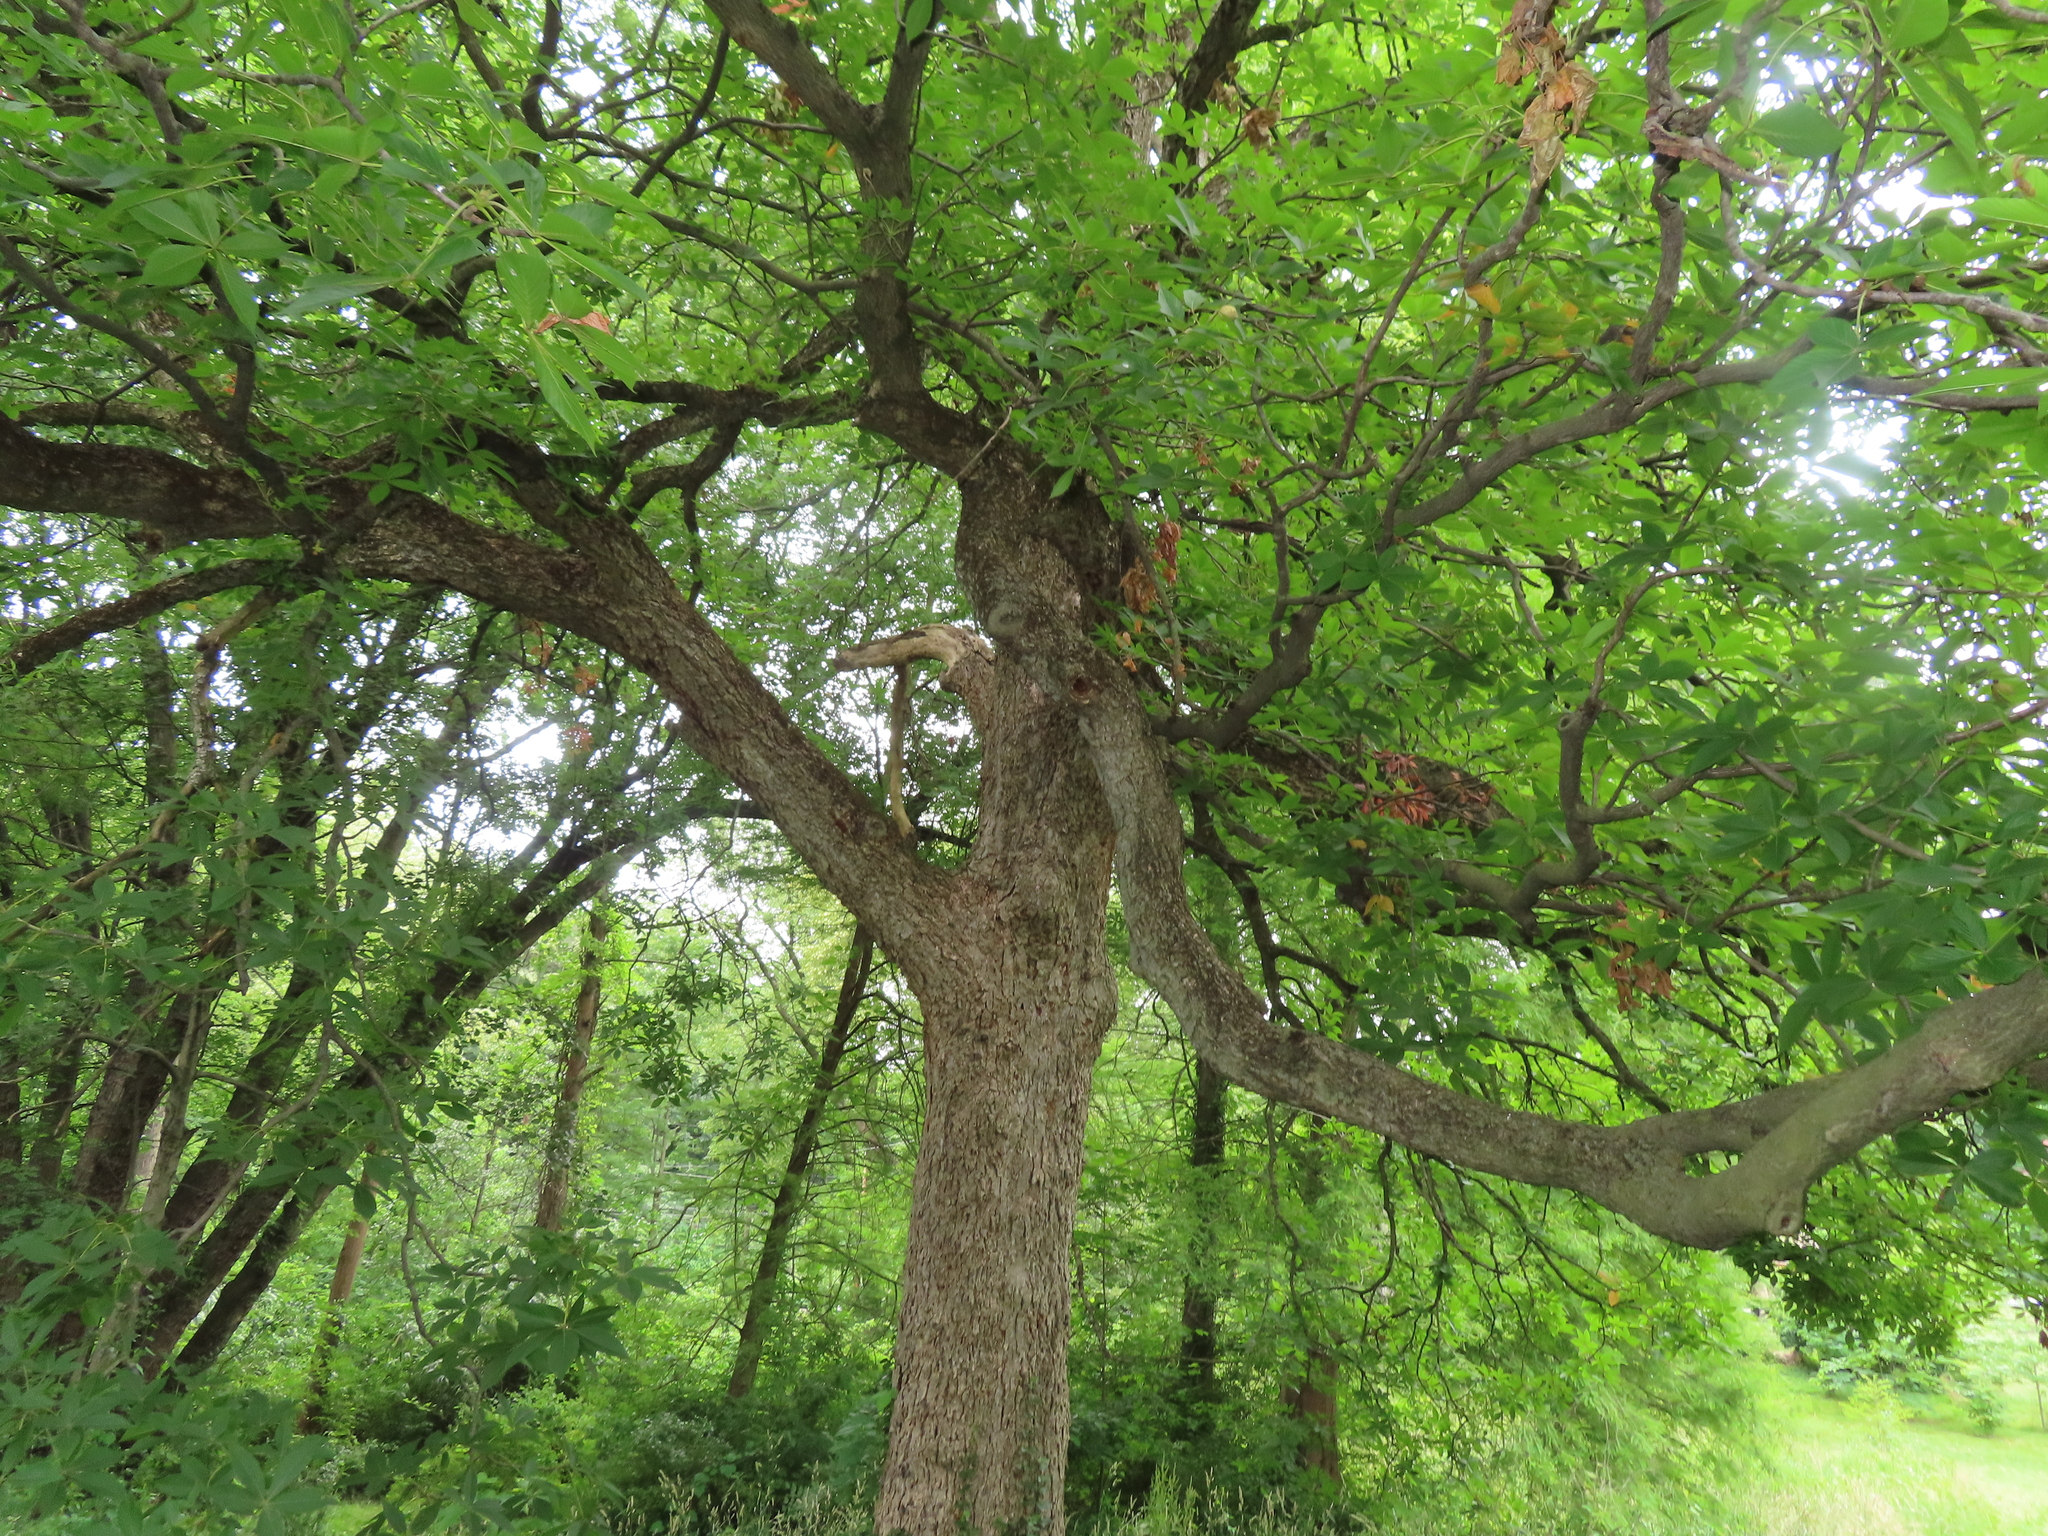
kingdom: Plantae
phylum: Tracheophyta
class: Magnoliopsida
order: Sapindales
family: Sapindaceae
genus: Aesculus
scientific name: Aesculus hippocastanum
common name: Horse-chestnut
